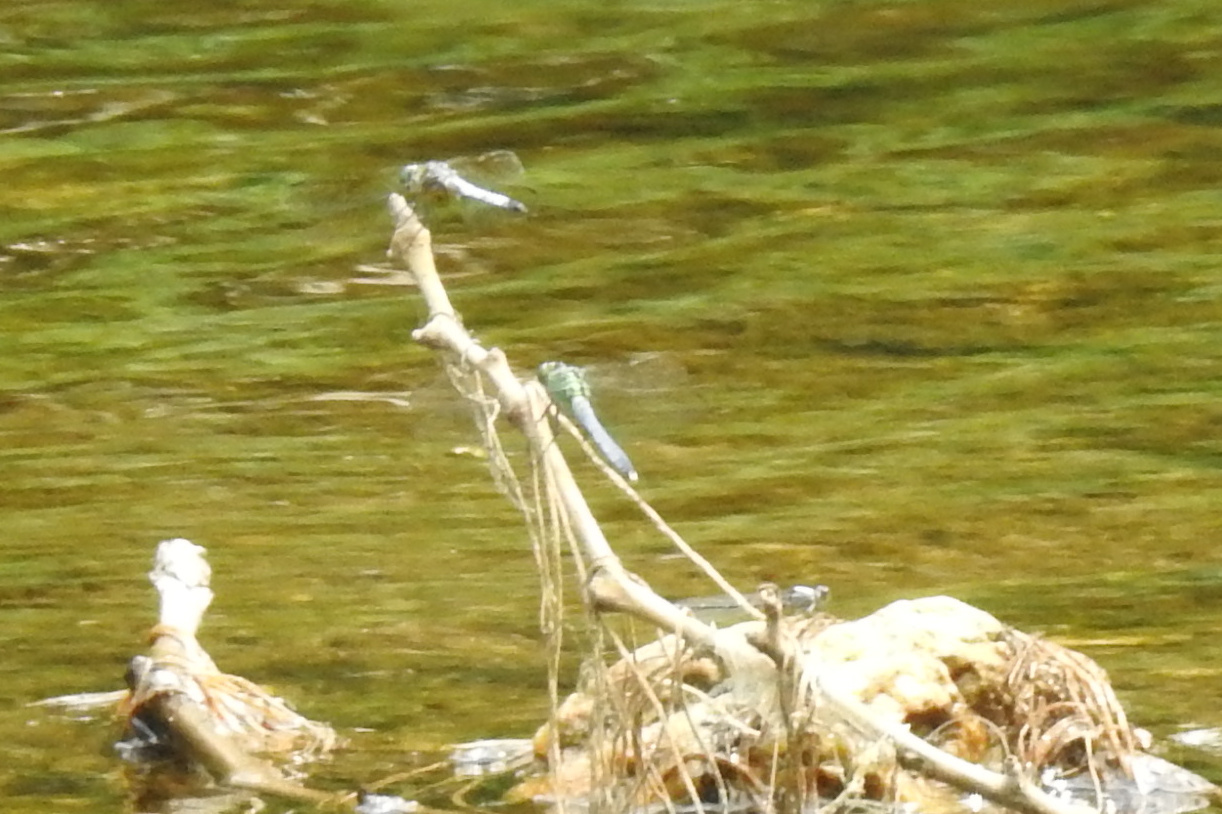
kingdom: Animalia
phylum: Arthropoda
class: Insecta
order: Odonata
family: Libellulidae
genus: Pachydiplax
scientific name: Pachydiplax longipennis
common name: Blue dasher
